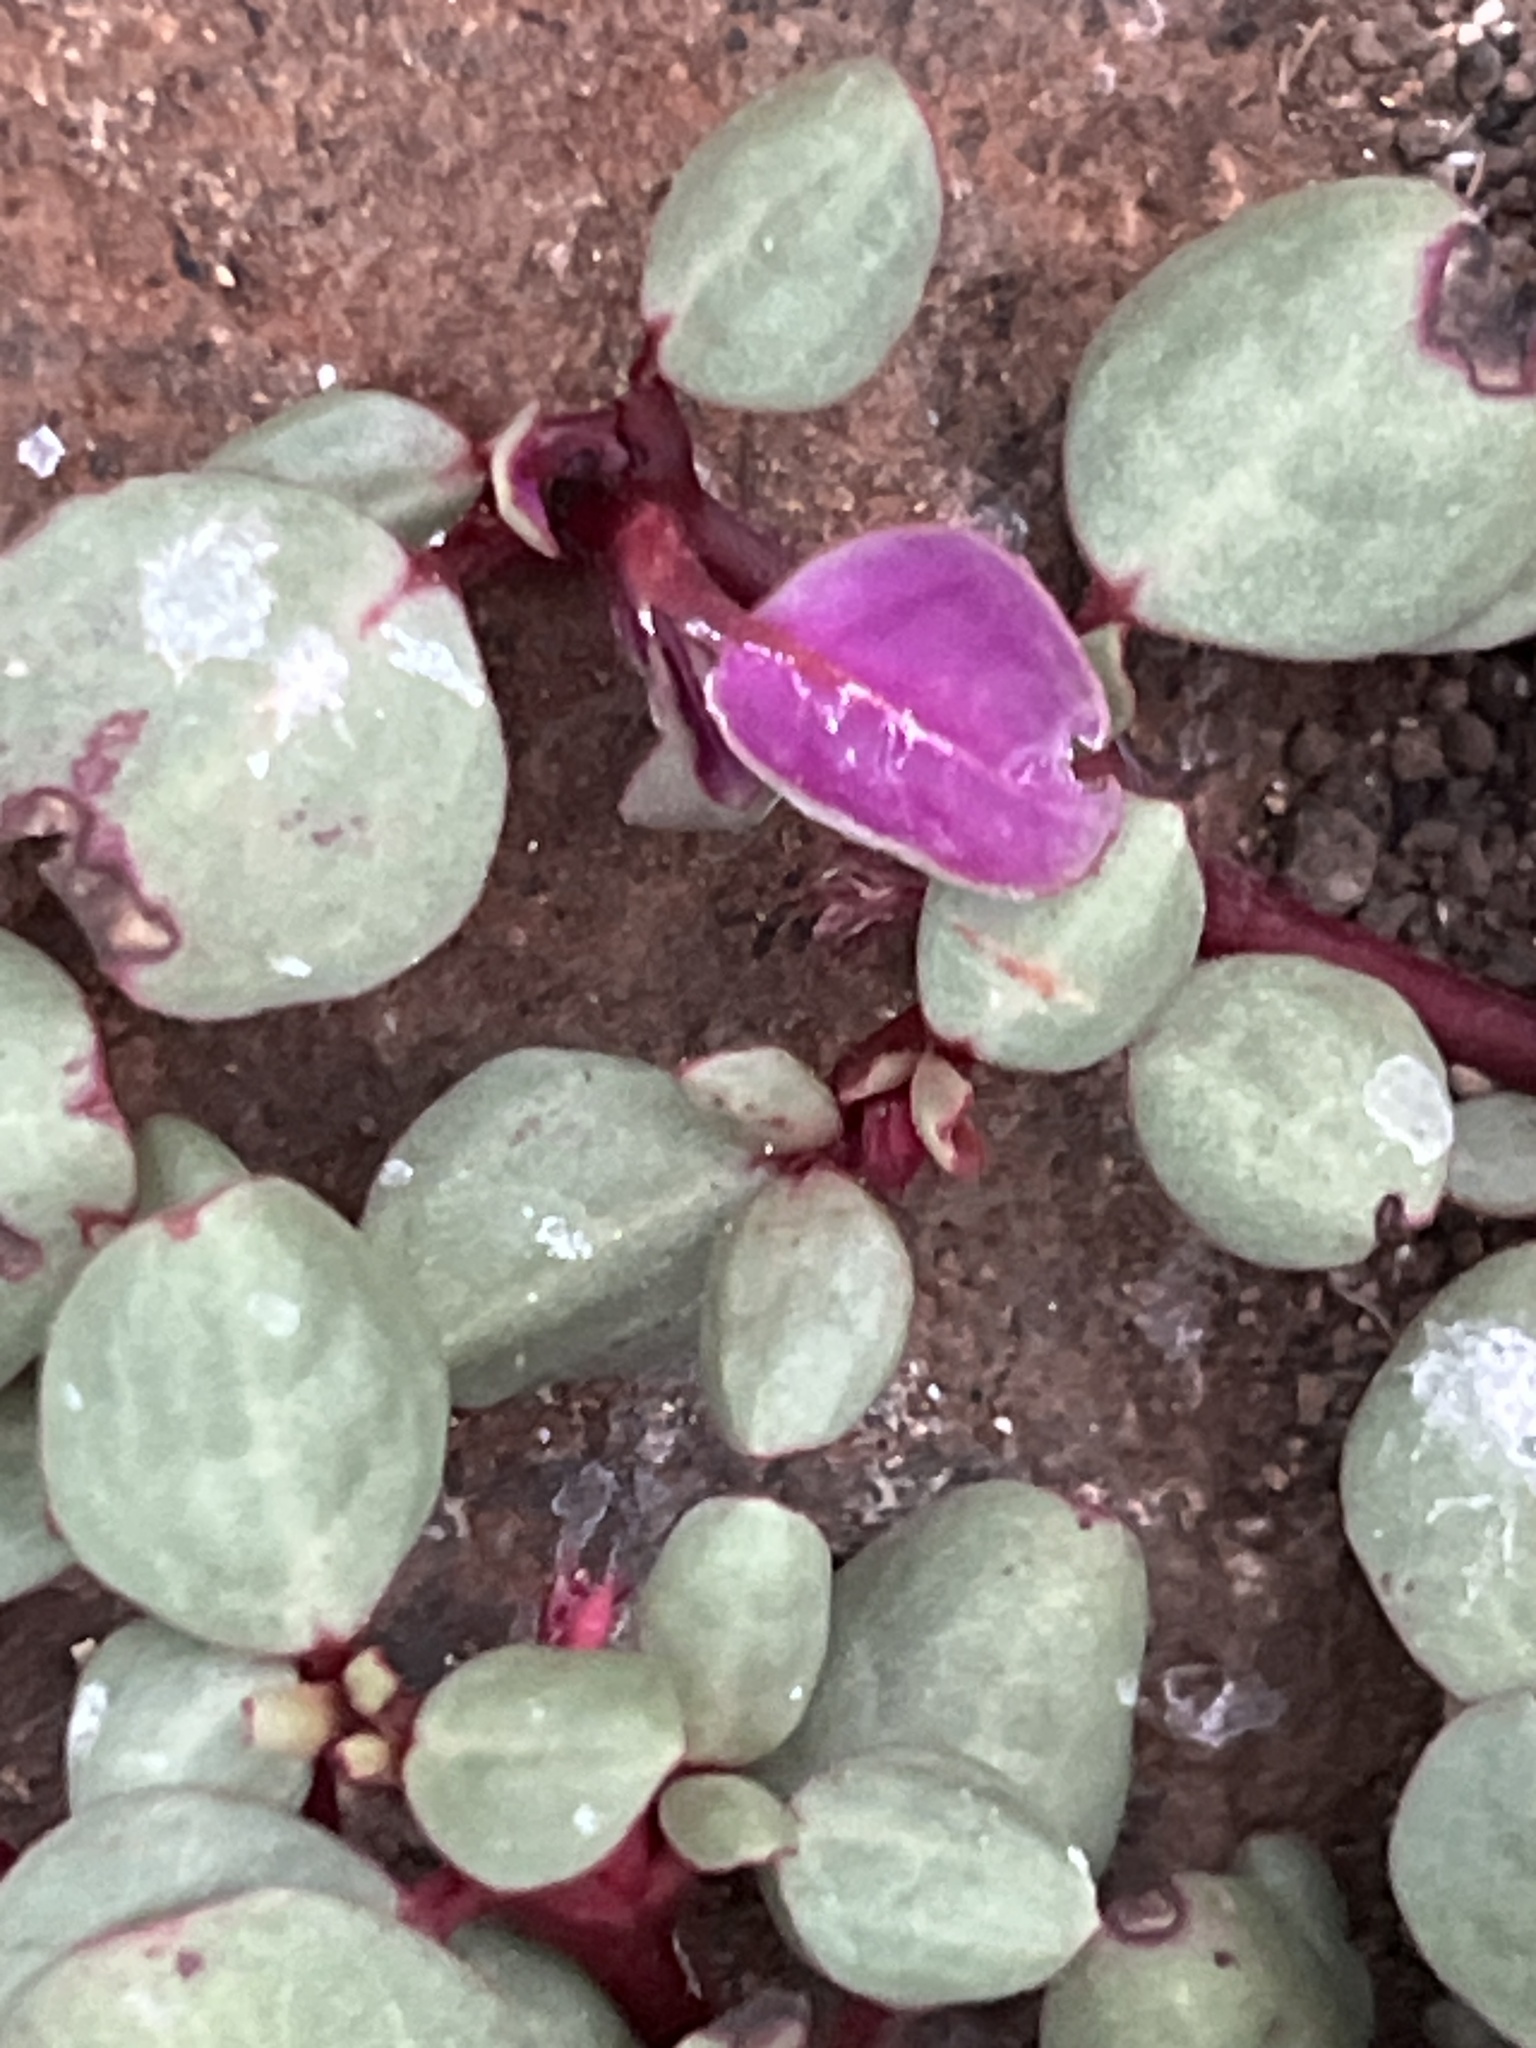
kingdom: Plantae
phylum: Tracheophyta
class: Magnoliopsida
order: Caryophyllales
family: Aizoaceae
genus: Trianthema
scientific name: Trianthema portulacastrum
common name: Desert horsepurslane
